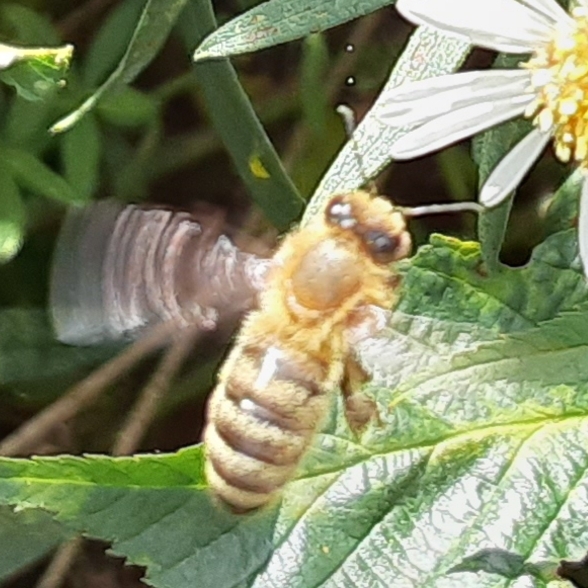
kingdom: Animalia
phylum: Arthropoda
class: Insecta
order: Hymenoptera
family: Apidae
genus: Apis
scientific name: Apis mellifera
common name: Honey bee
